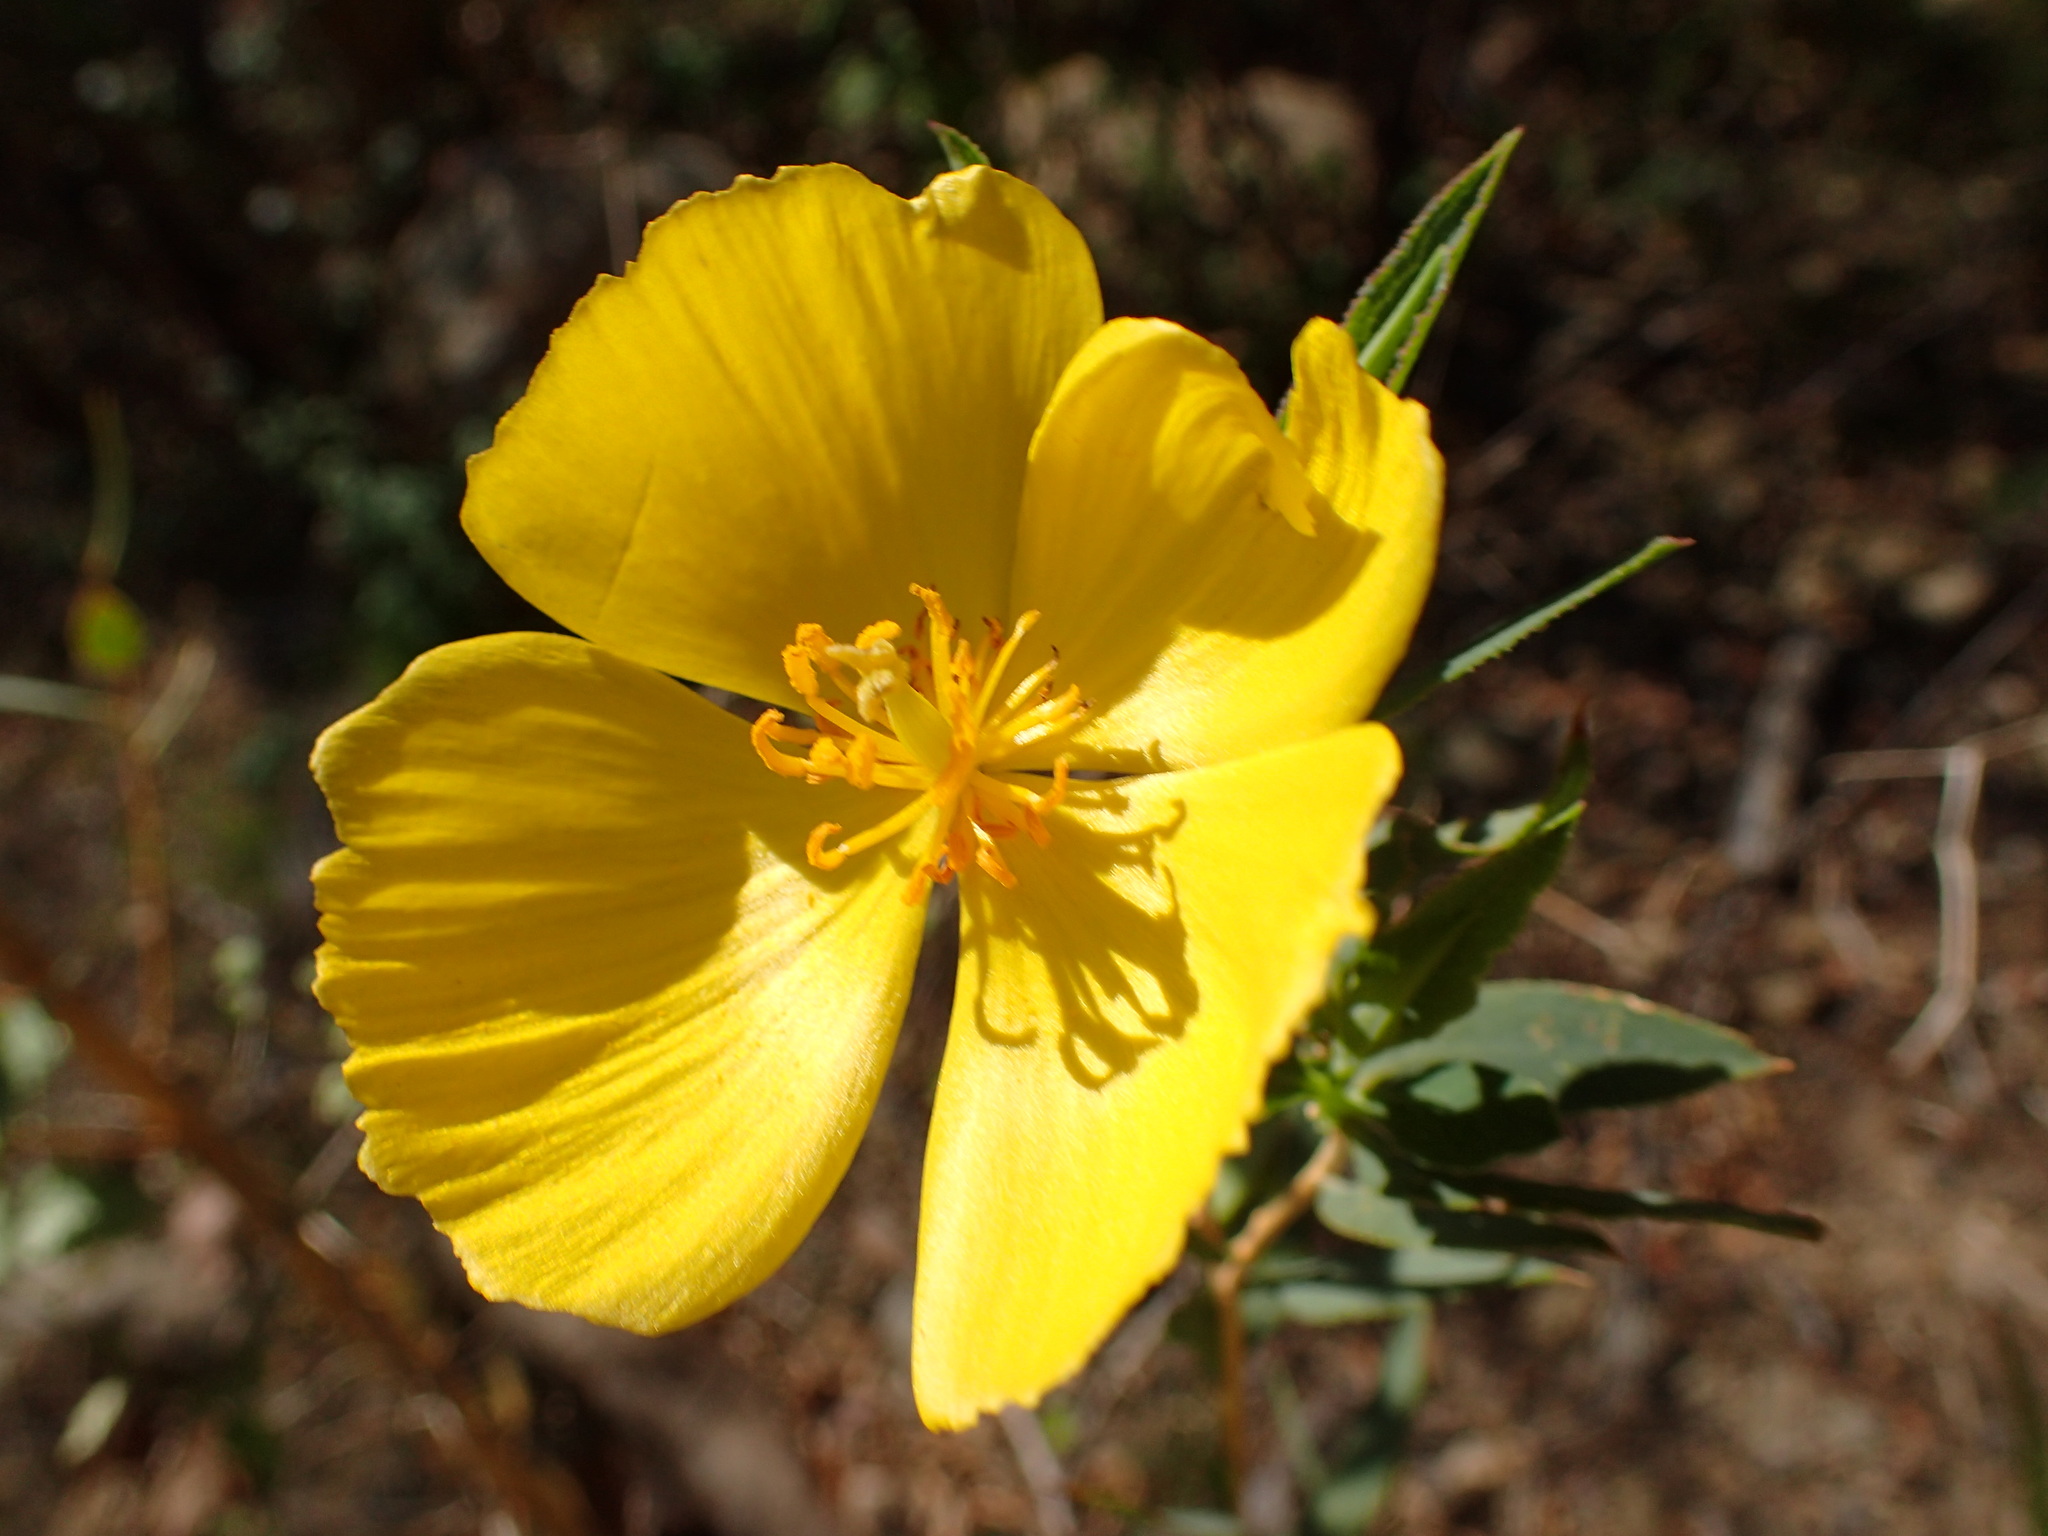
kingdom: Plantae
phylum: Tracheophyta
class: Magnoliopsida
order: Ranunculales
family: Papaveraceae
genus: Dendromecon
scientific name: Dendromecon rigida
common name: Tree poppy
